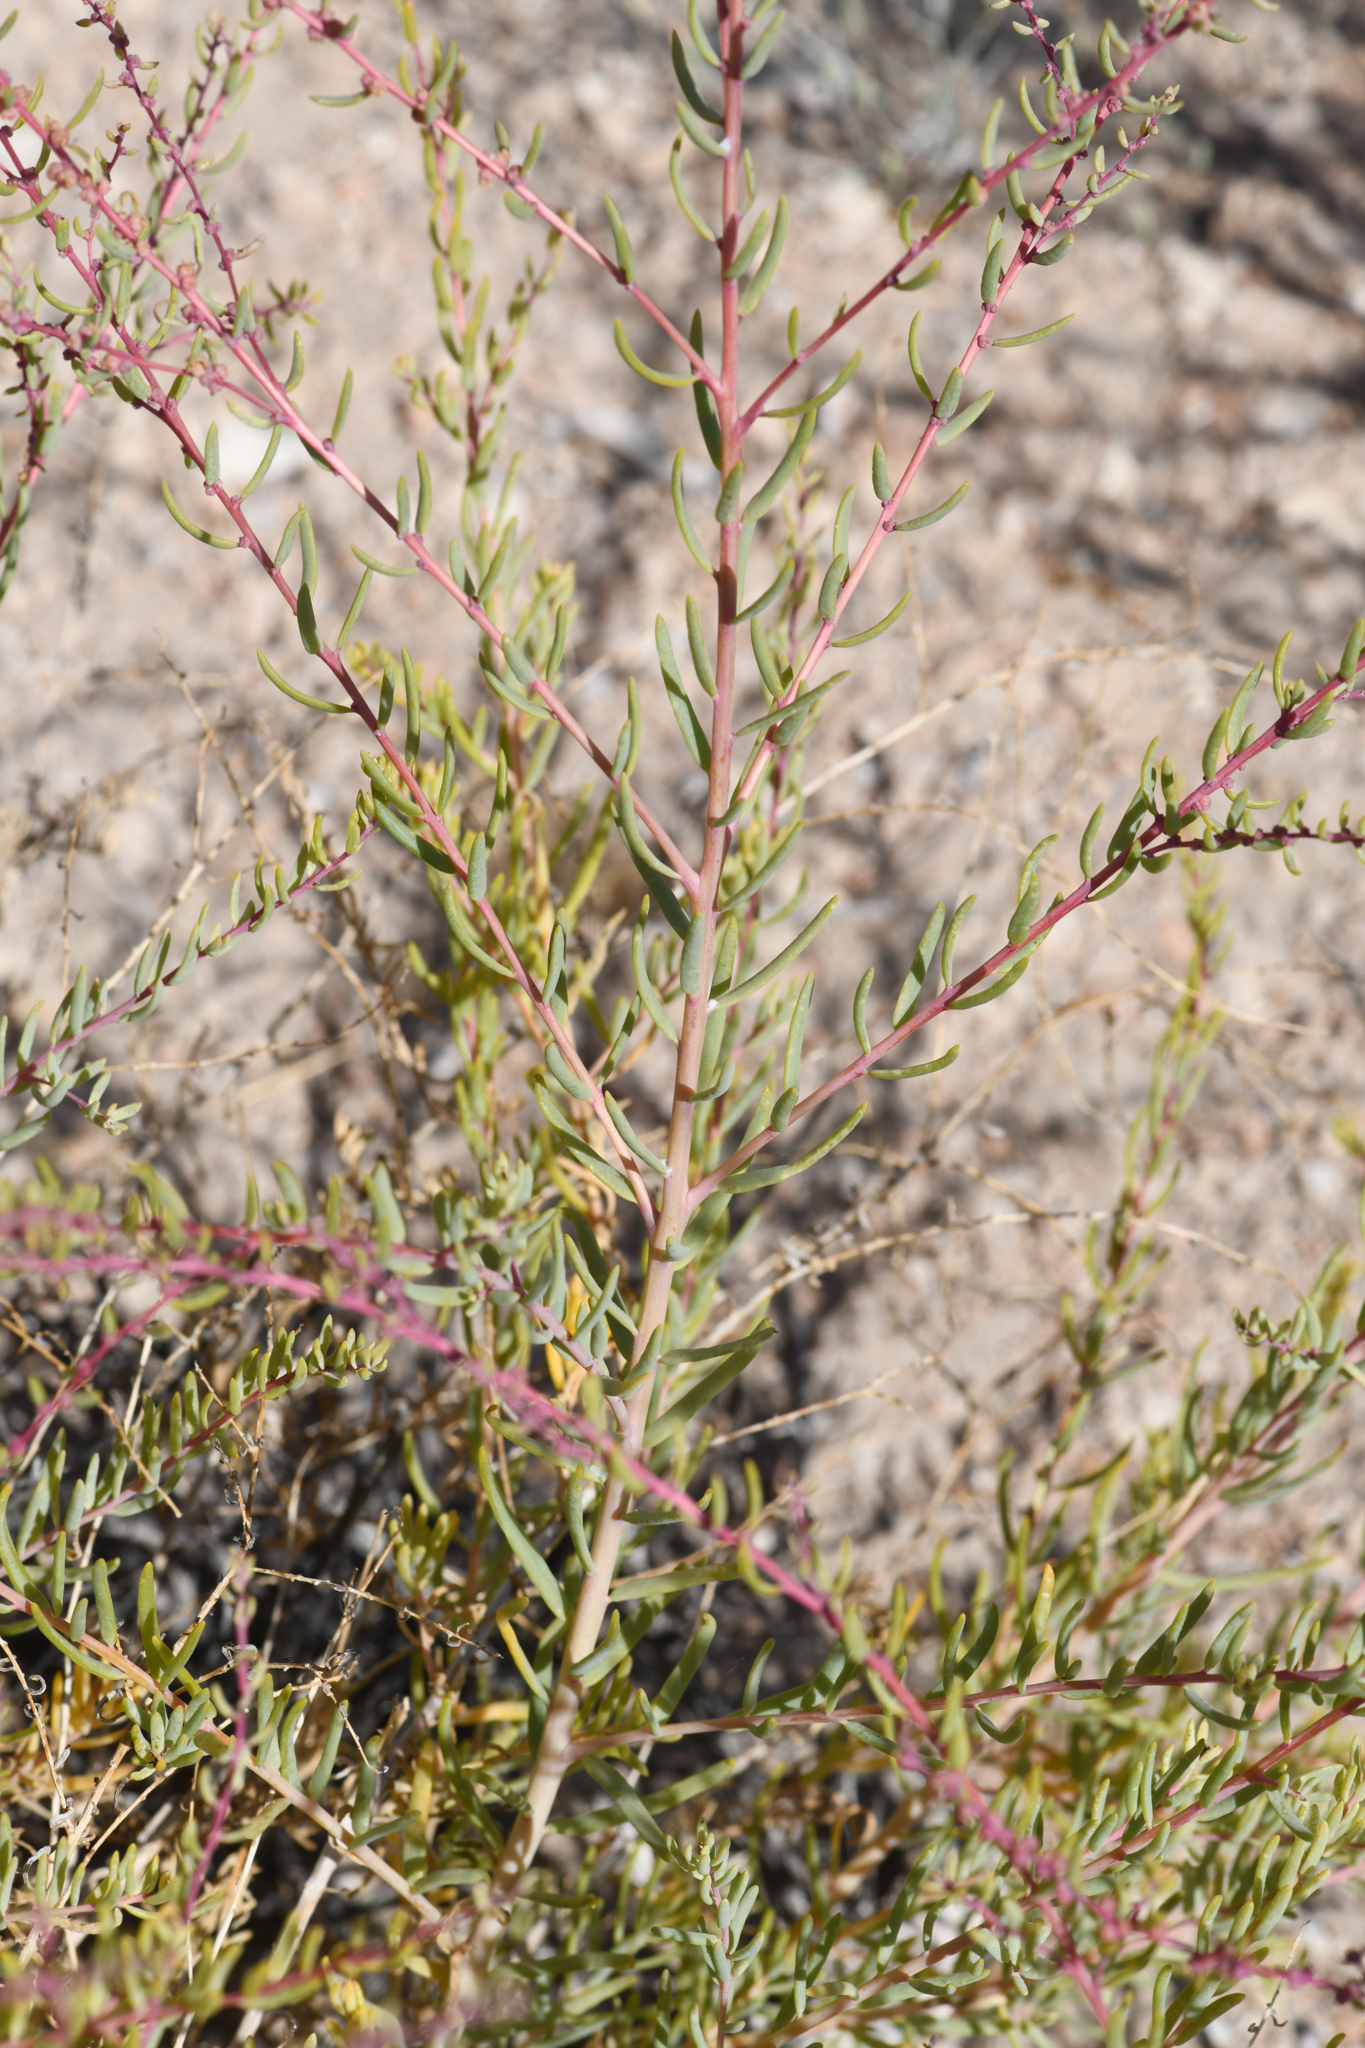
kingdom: Plantae
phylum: Tracheophyta
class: Magnoliopsida
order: Caryophyllales
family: Amaranthaceae
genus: Suaeda
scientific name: Suaeda nigra
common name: Bush seepweed
